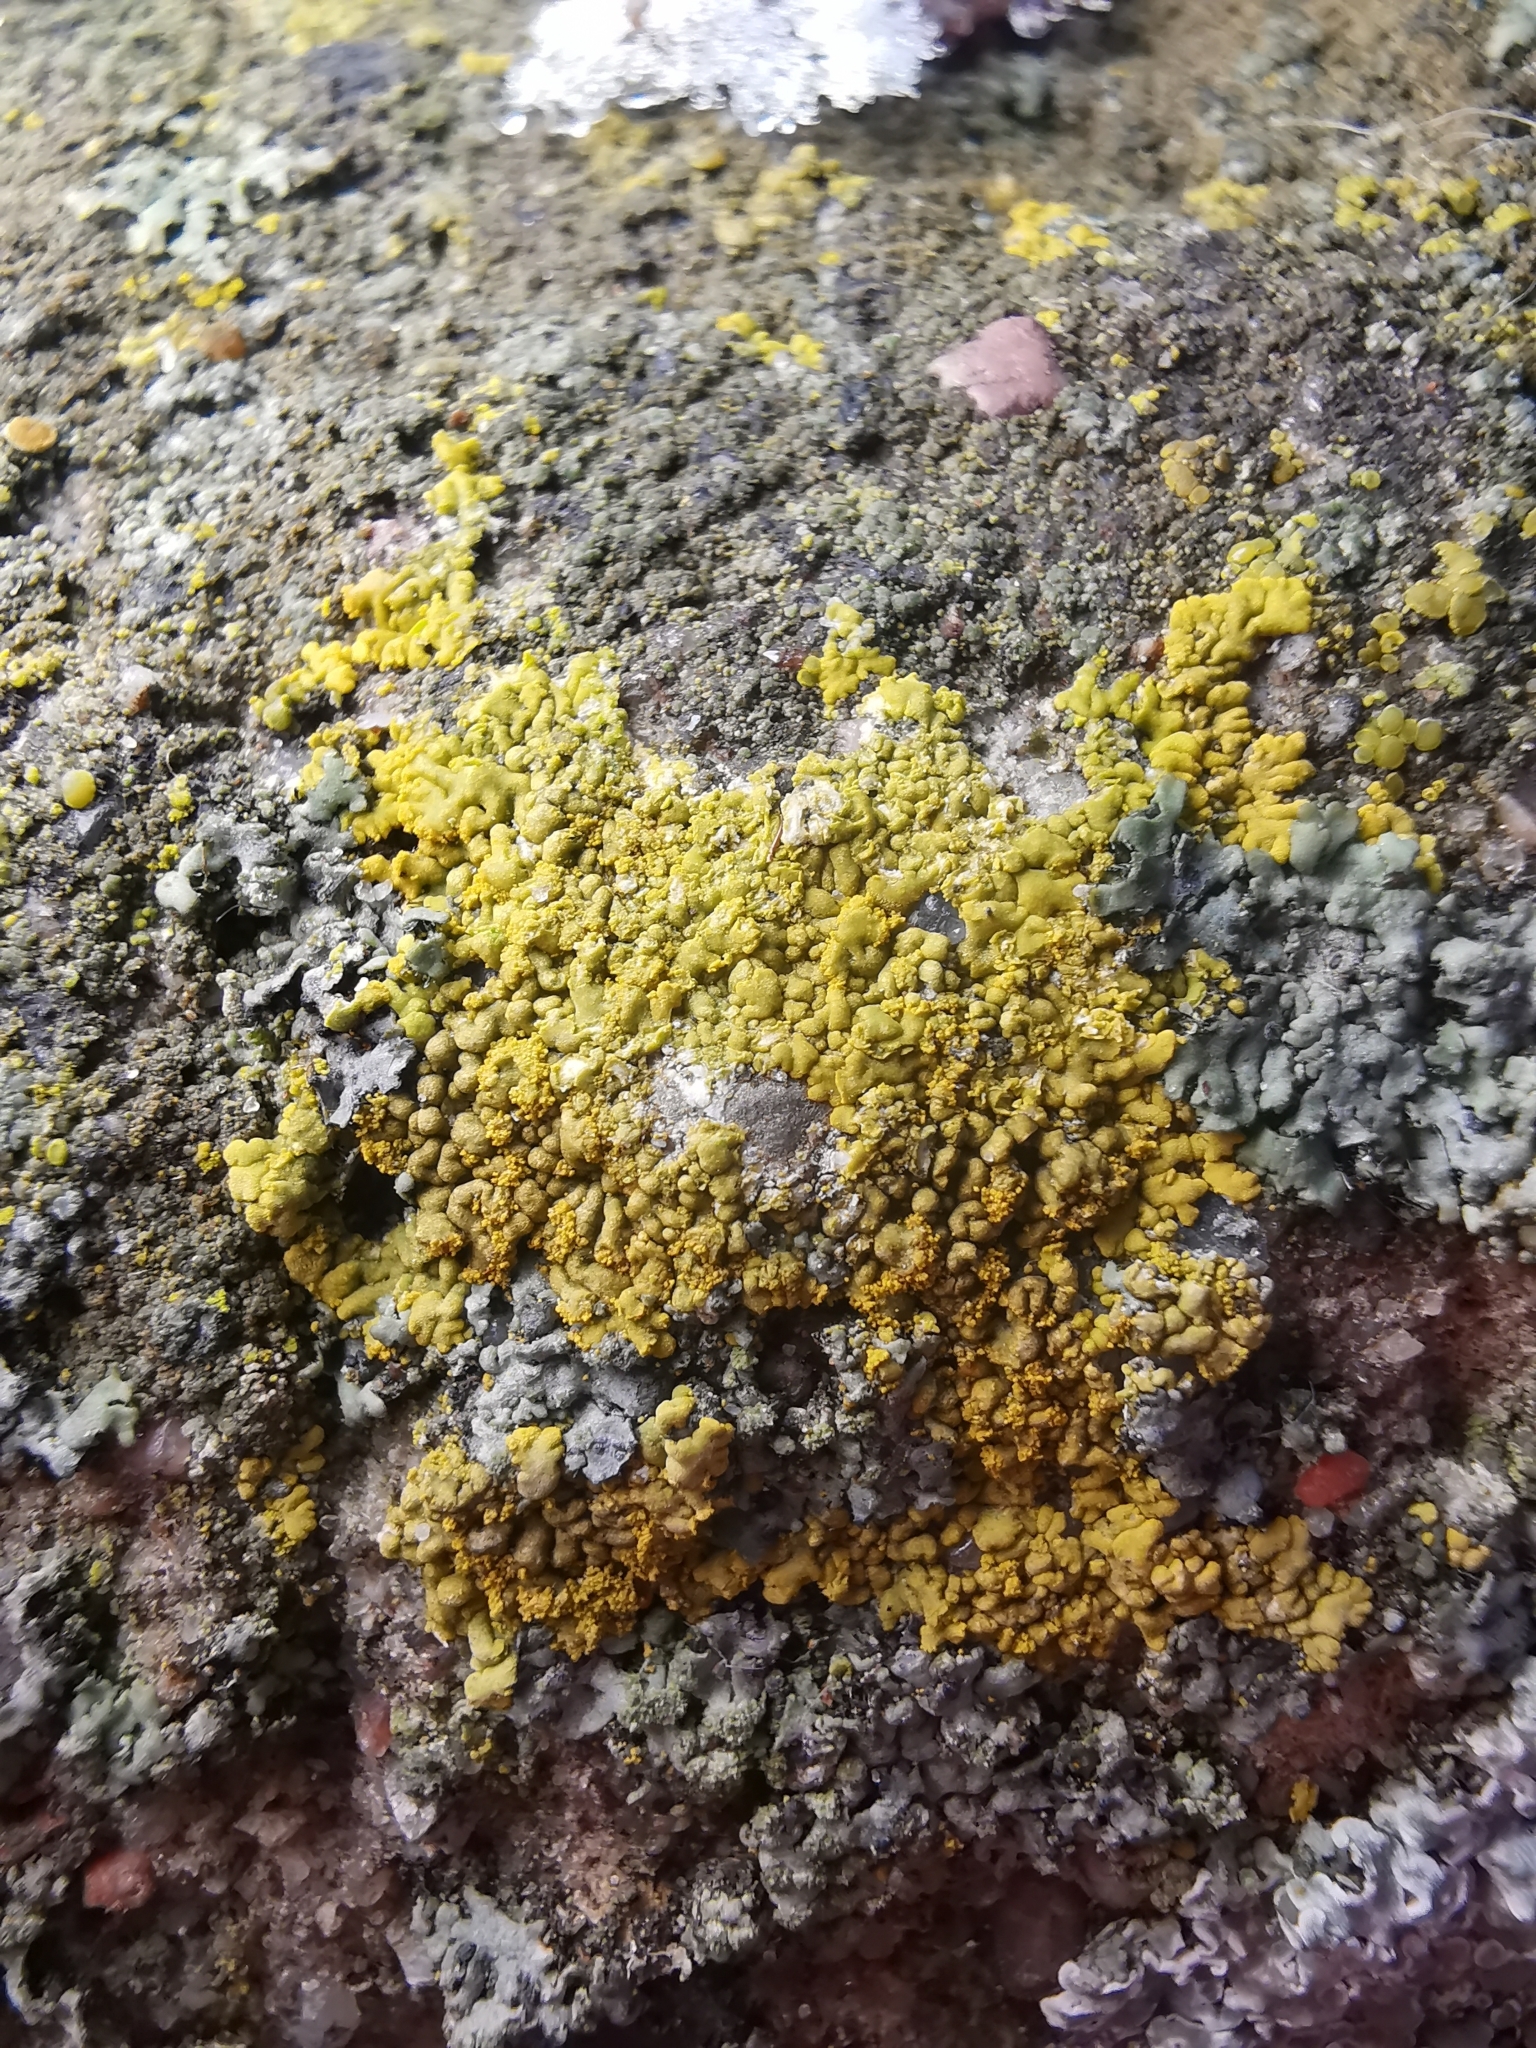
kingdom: Fungi
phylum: Ascomycota
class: Lecanoromycetes
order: Teloschistales
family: Teloschistaceae
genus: Calogaya
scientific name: Calogaya decipiens
